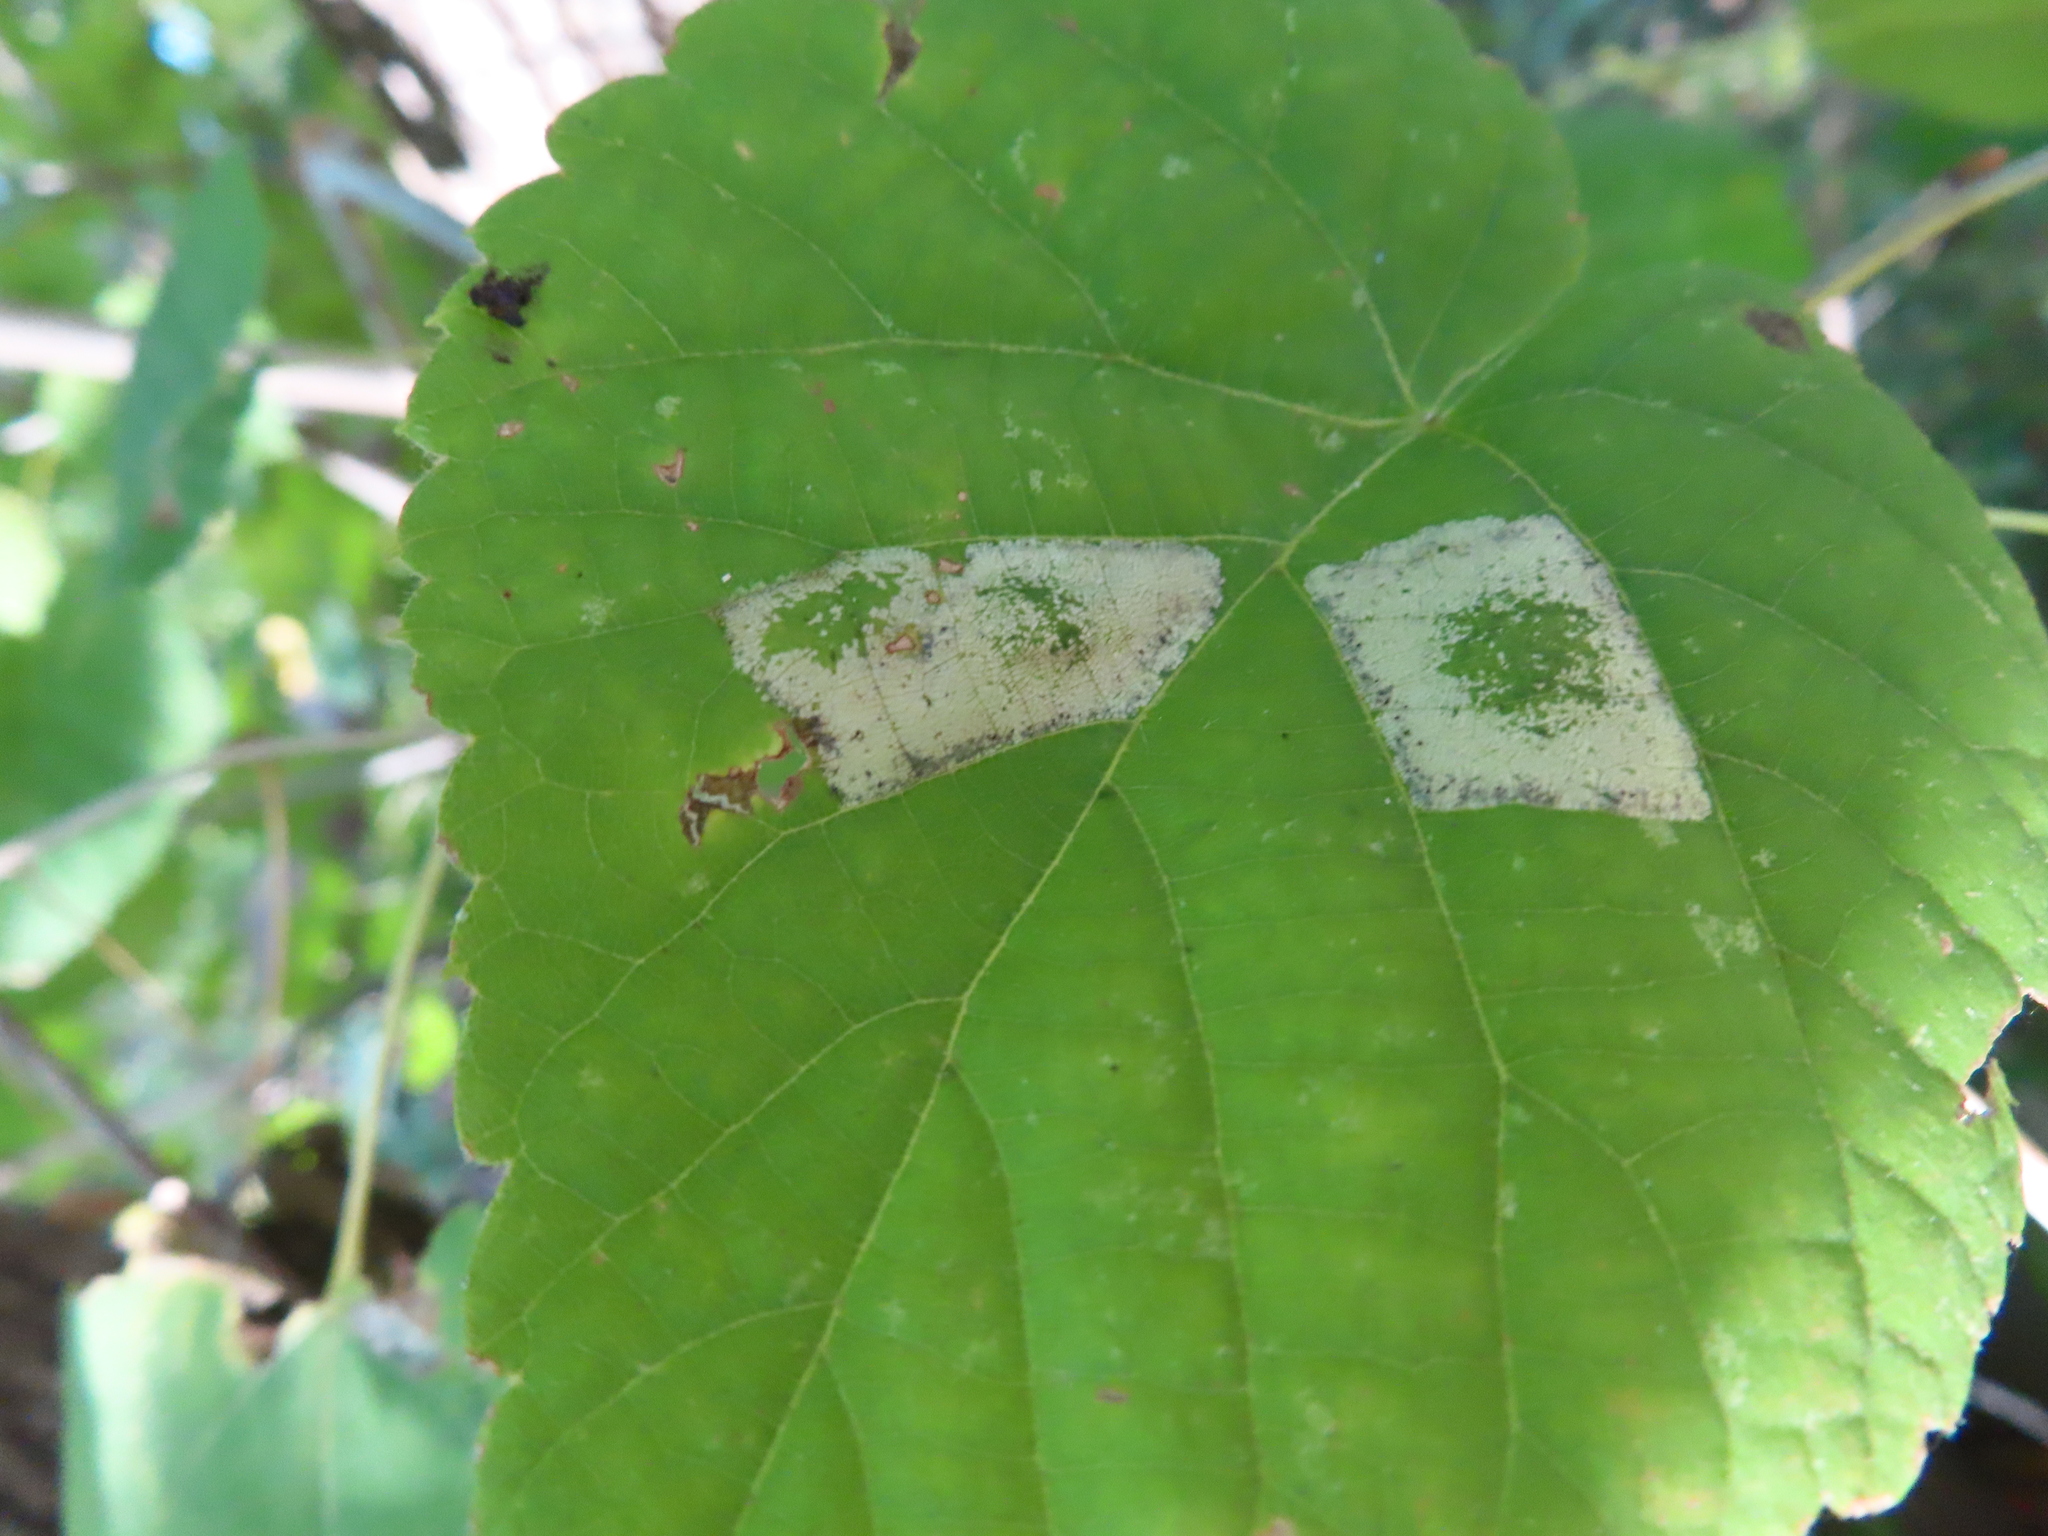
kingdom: Animalia
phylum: Arthropoda
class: Insecta
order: Lepidoptera
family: Gracillariidae
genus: Phyllonorycter
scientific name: Phyllonorycter lucetiella
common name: Basswood miner moth
